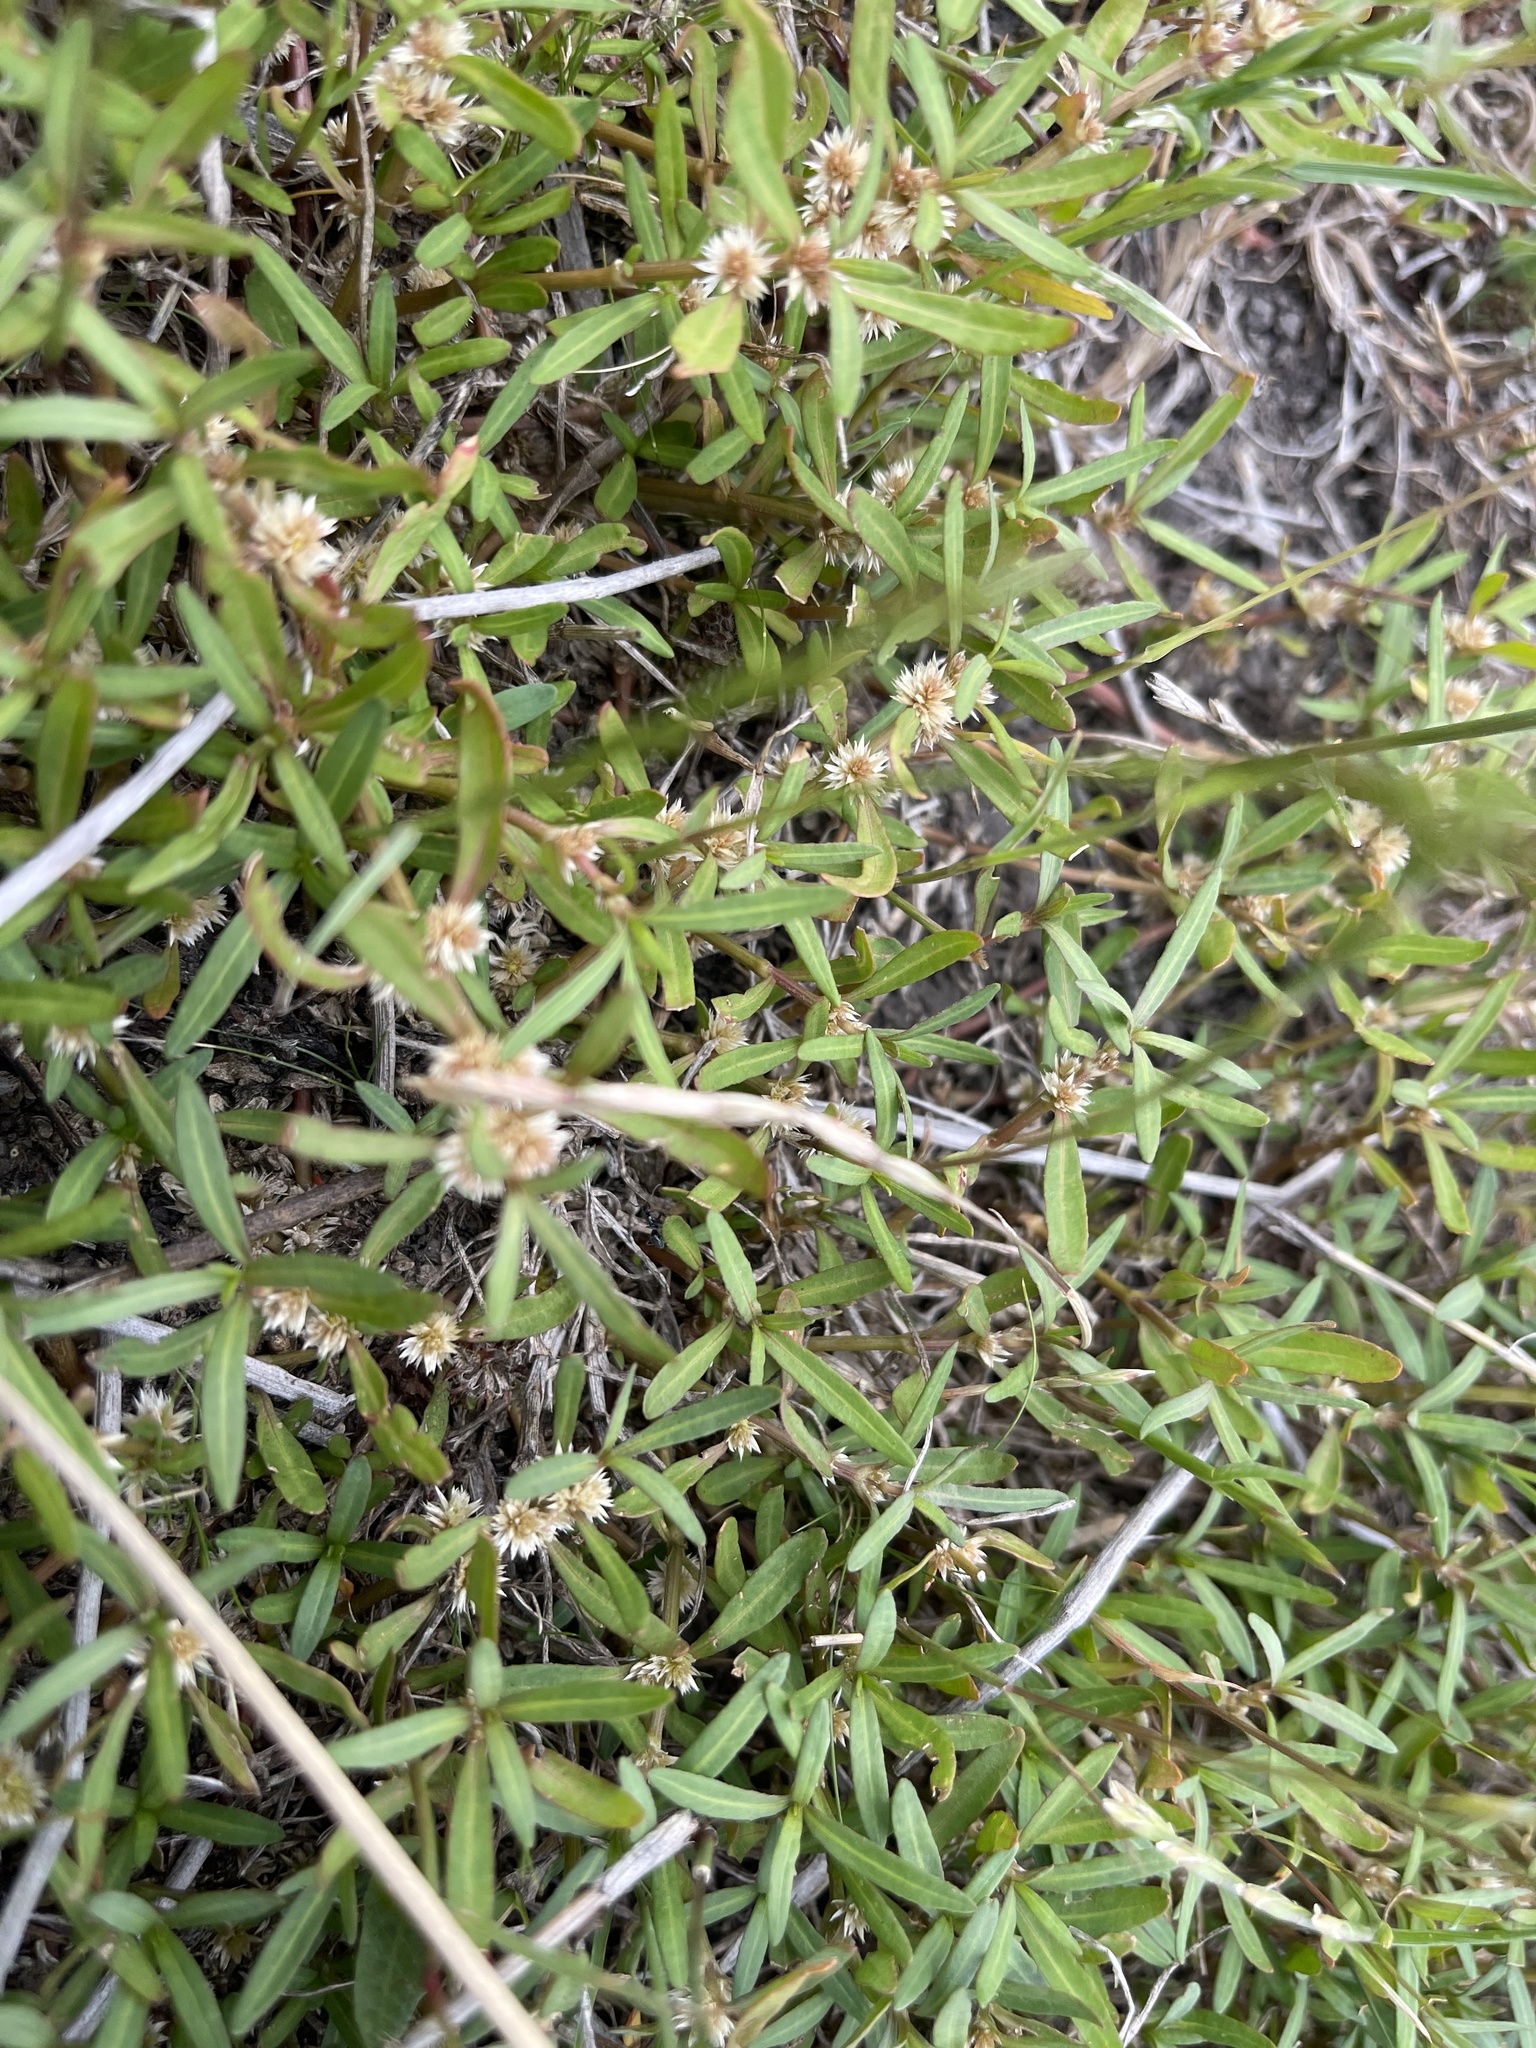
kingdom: Plantae
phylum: Tracheophyta
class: Magnoliopsida
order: Caryophyllales
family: Amaranthaceae
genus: Alternanthera
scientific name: Alternanthera denticulata
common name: Lesser joyweed
